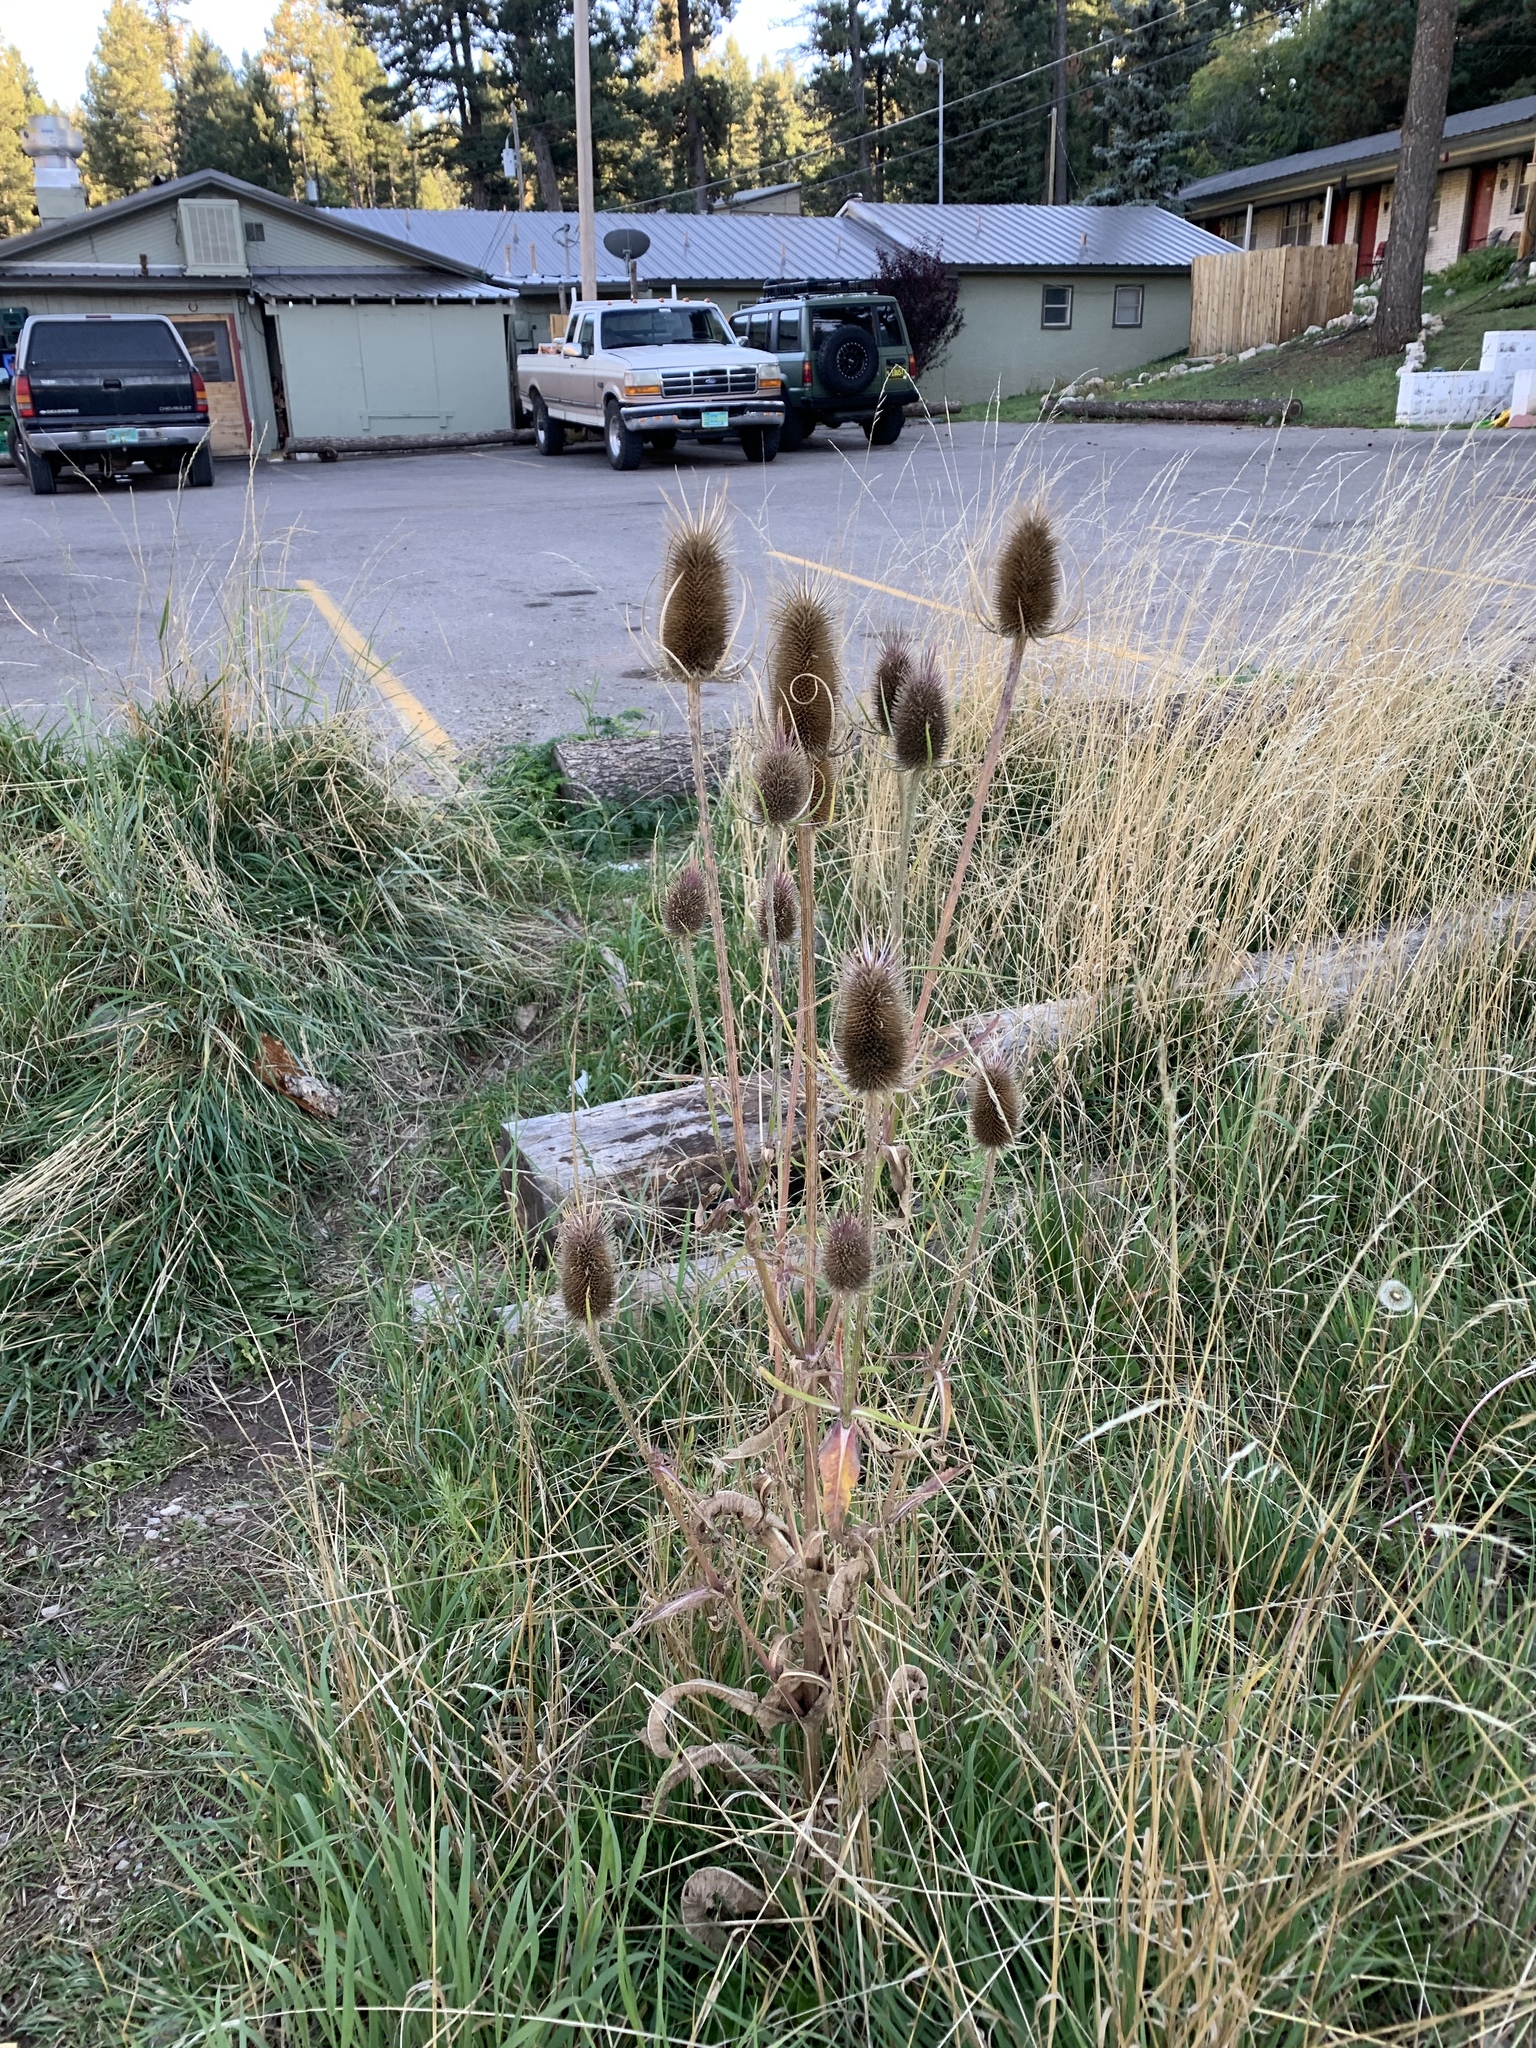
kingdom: Plantae
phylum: Tracheophyta
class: Magnoliopsida
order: Dipsacales
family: Caprifoliaceae
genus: Dipsacus
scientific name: Dipsacus fullonum
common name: Teasel
